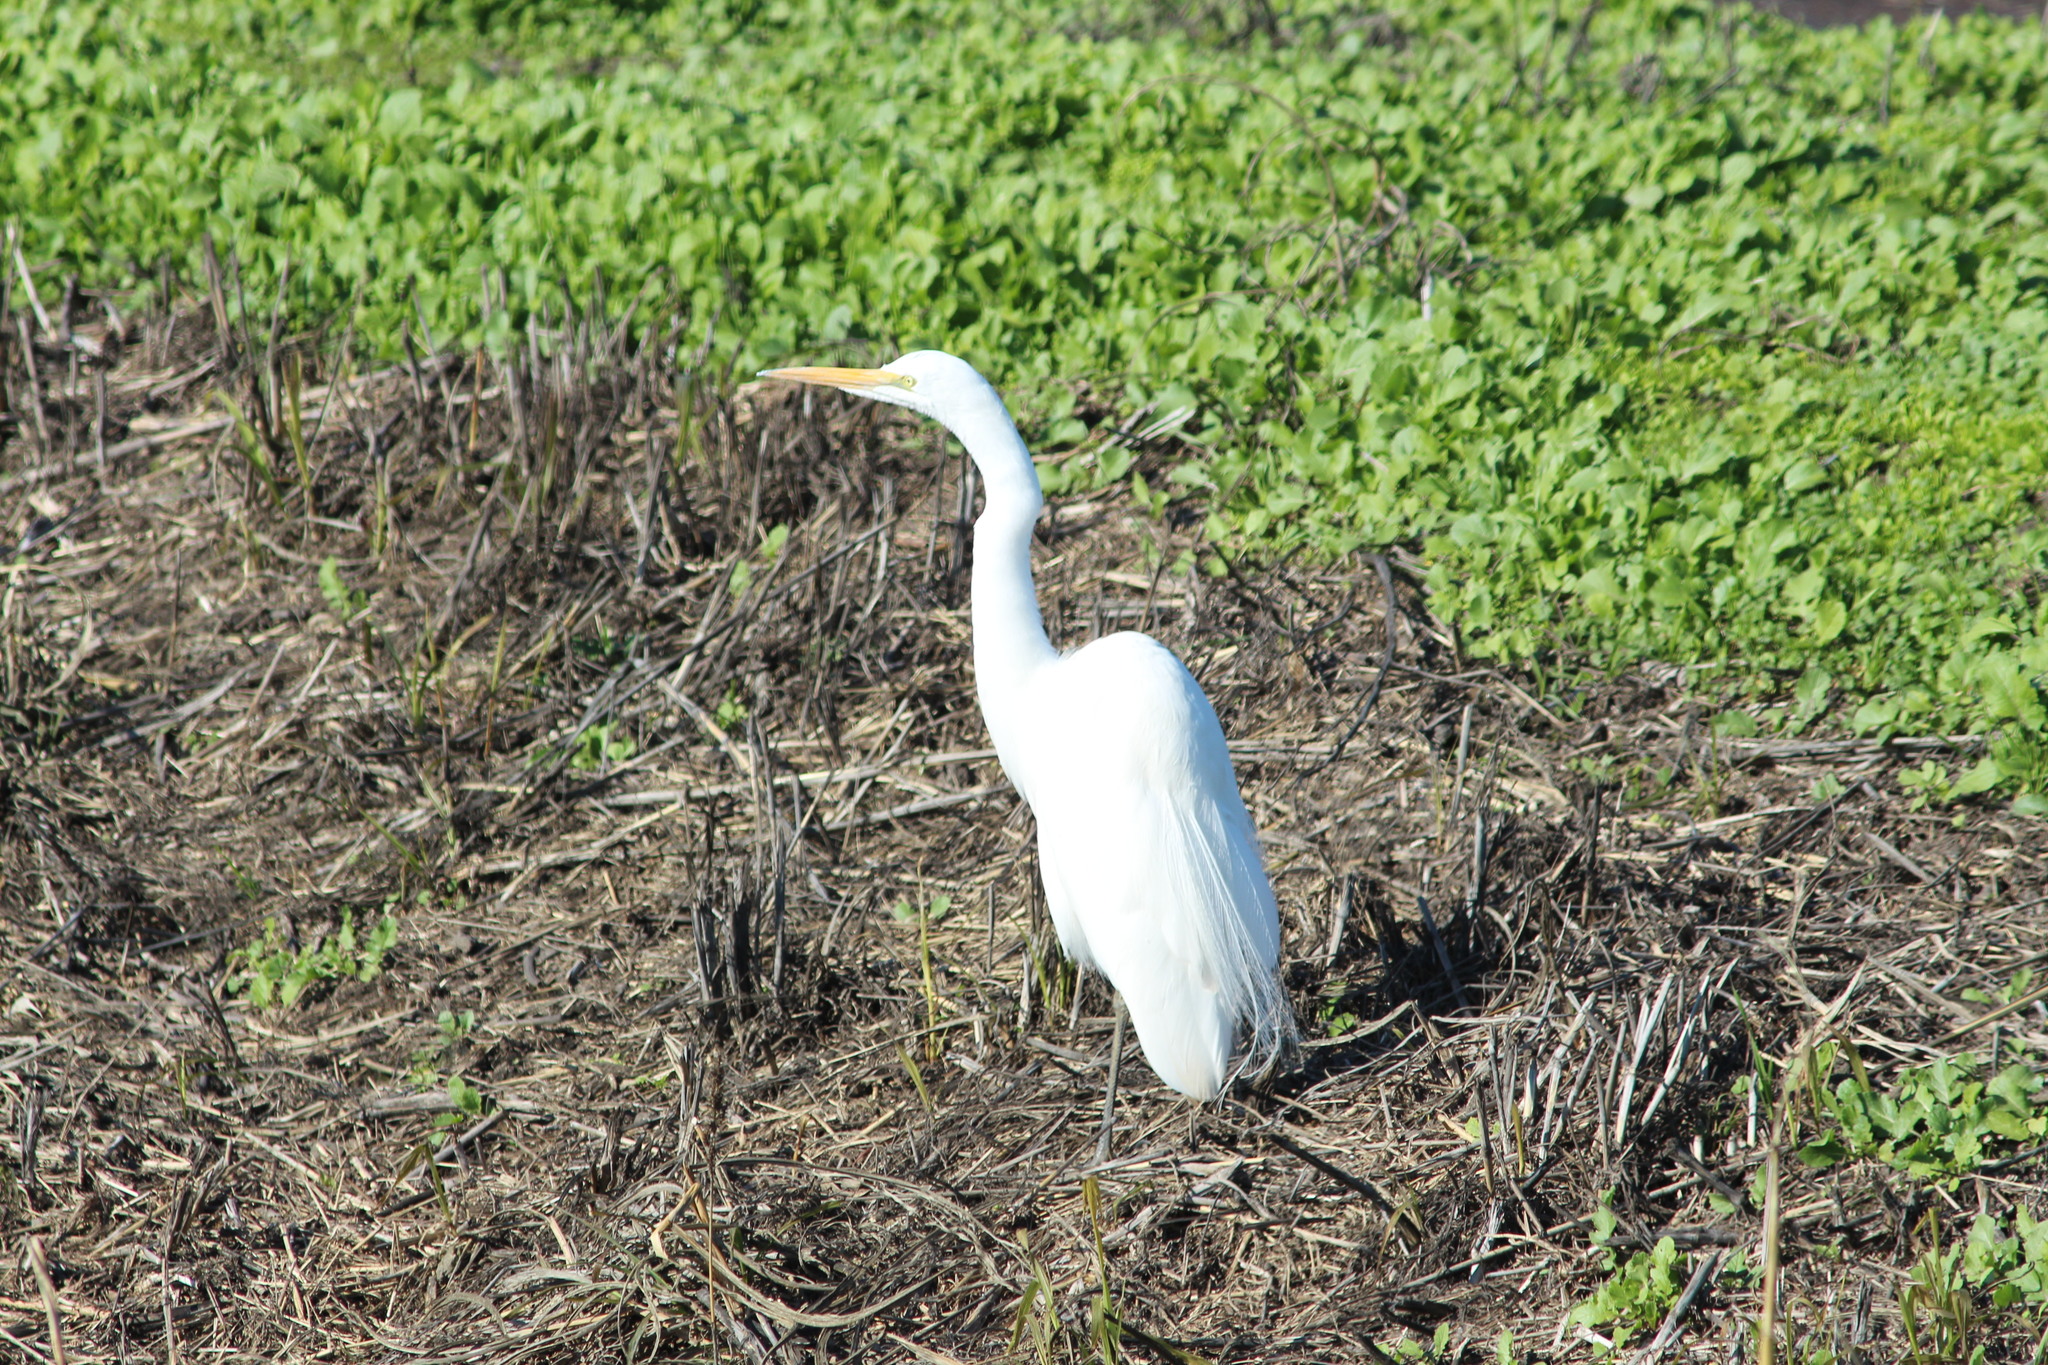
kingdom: Animalia
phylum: Chordata
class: Aves
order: Pelecaniformes
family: Ardeidae
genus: Ardea
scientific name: Ardea alba
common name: Great egret
